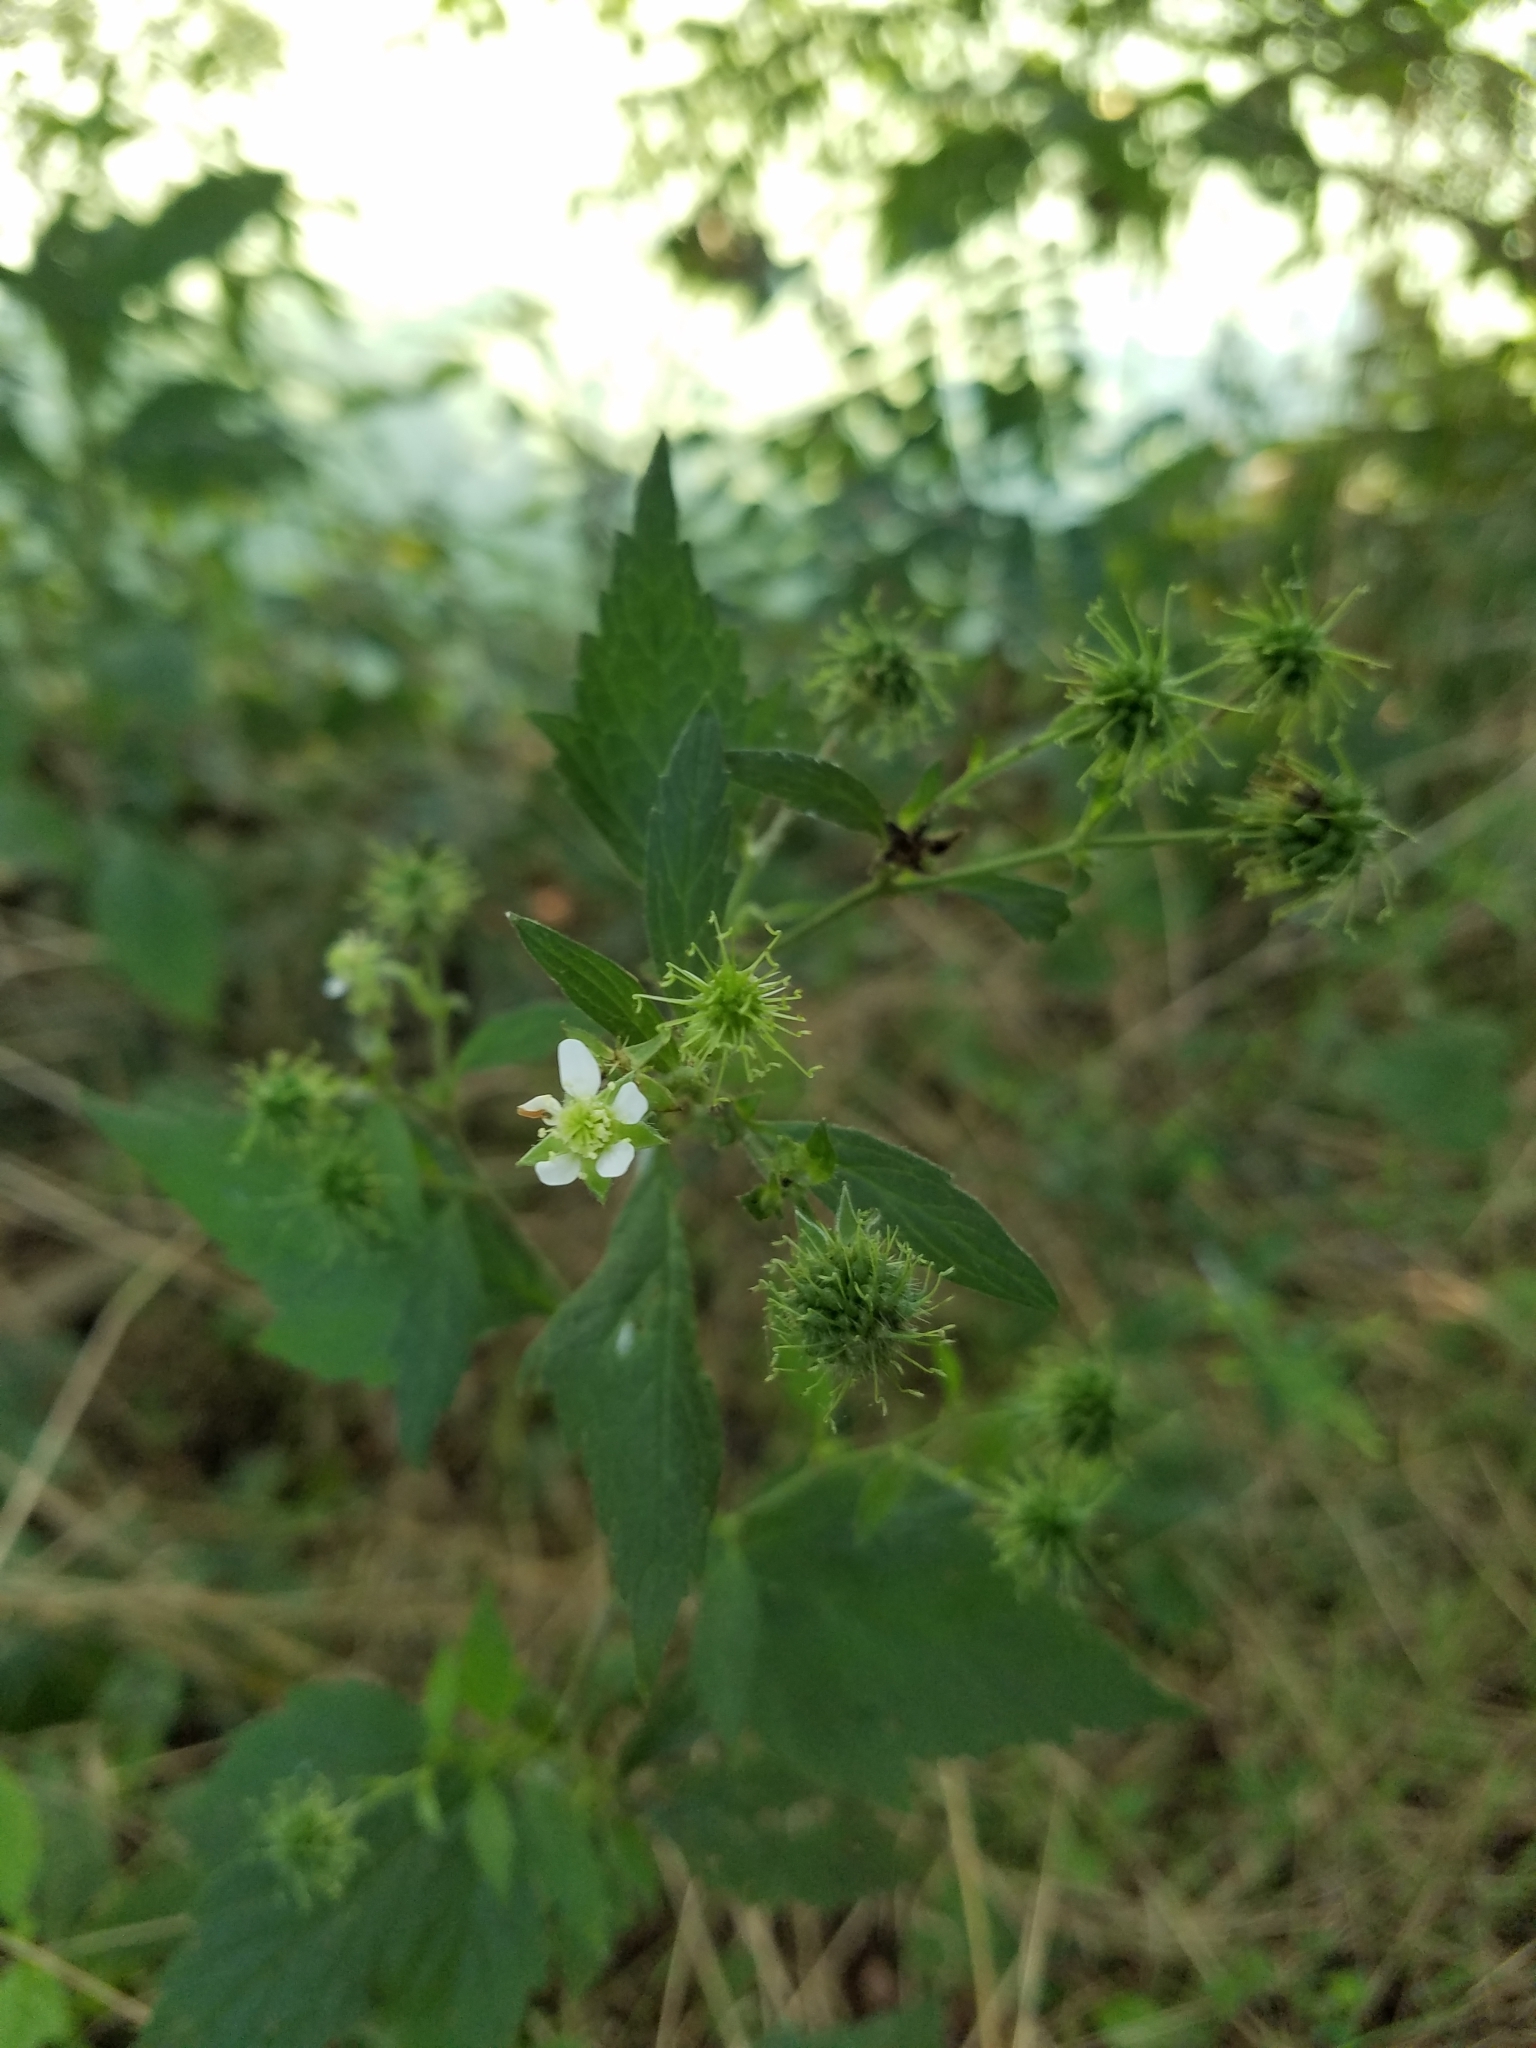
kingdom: Plantae
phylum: Tracheophyta
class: Magnoliopsida
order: Rosales
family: Rosaceae
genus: Geum
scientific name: Geum canadense
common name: White avens
